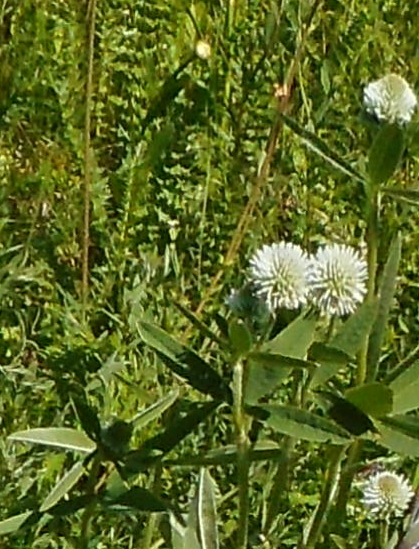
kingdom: Plantae
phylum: Tracheophyta
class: Magnoliopsida
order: Fabales
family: Fabaceae
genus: Trifolium
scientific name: Trifolium montanum
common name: Mountain clover
